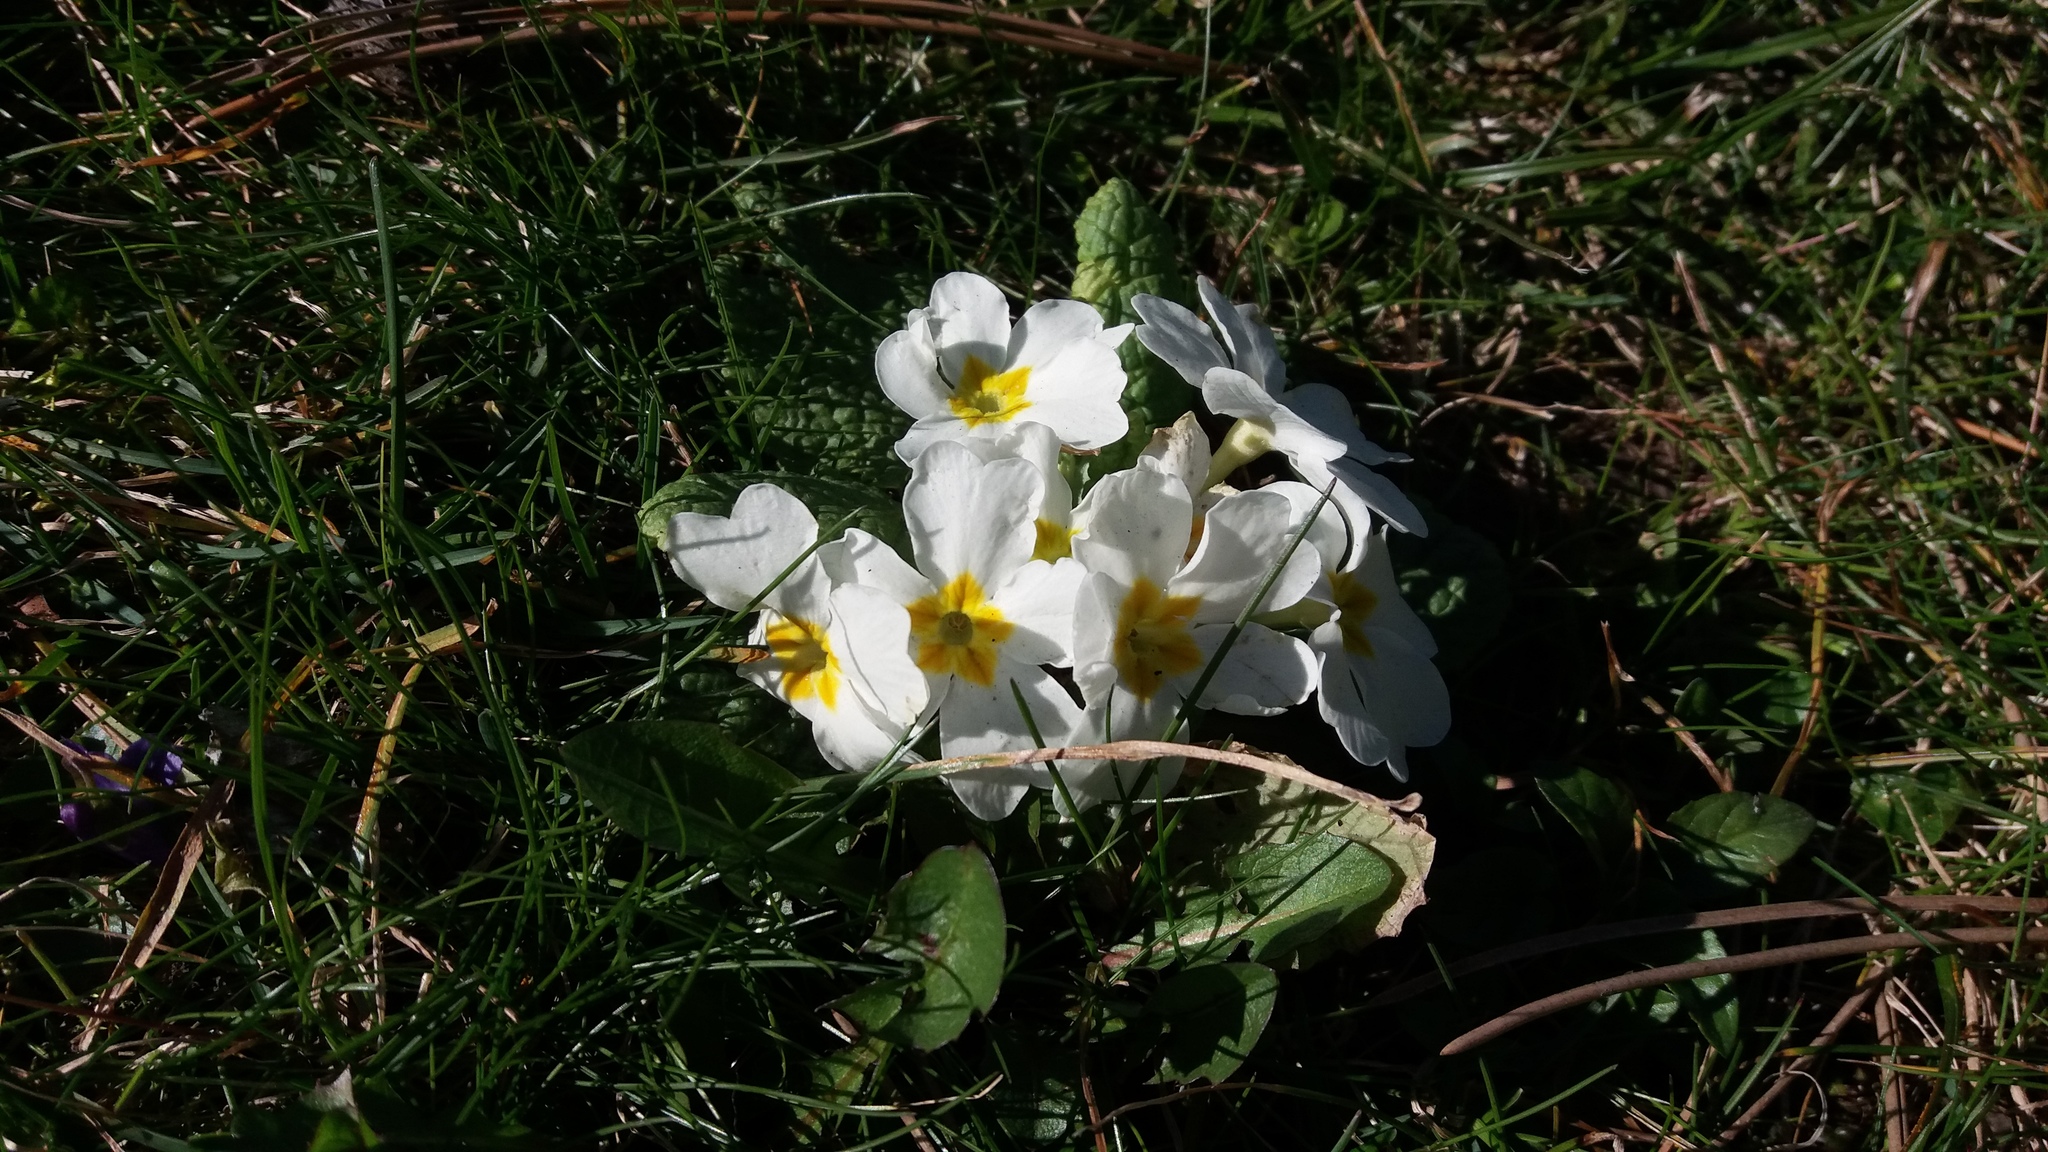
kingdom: Plantae
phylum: Tracheophyta
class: Magnoliopsida
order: Ericales
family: Primulaceae
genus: Primula
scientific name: Primula vulgaris
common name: Primrose
